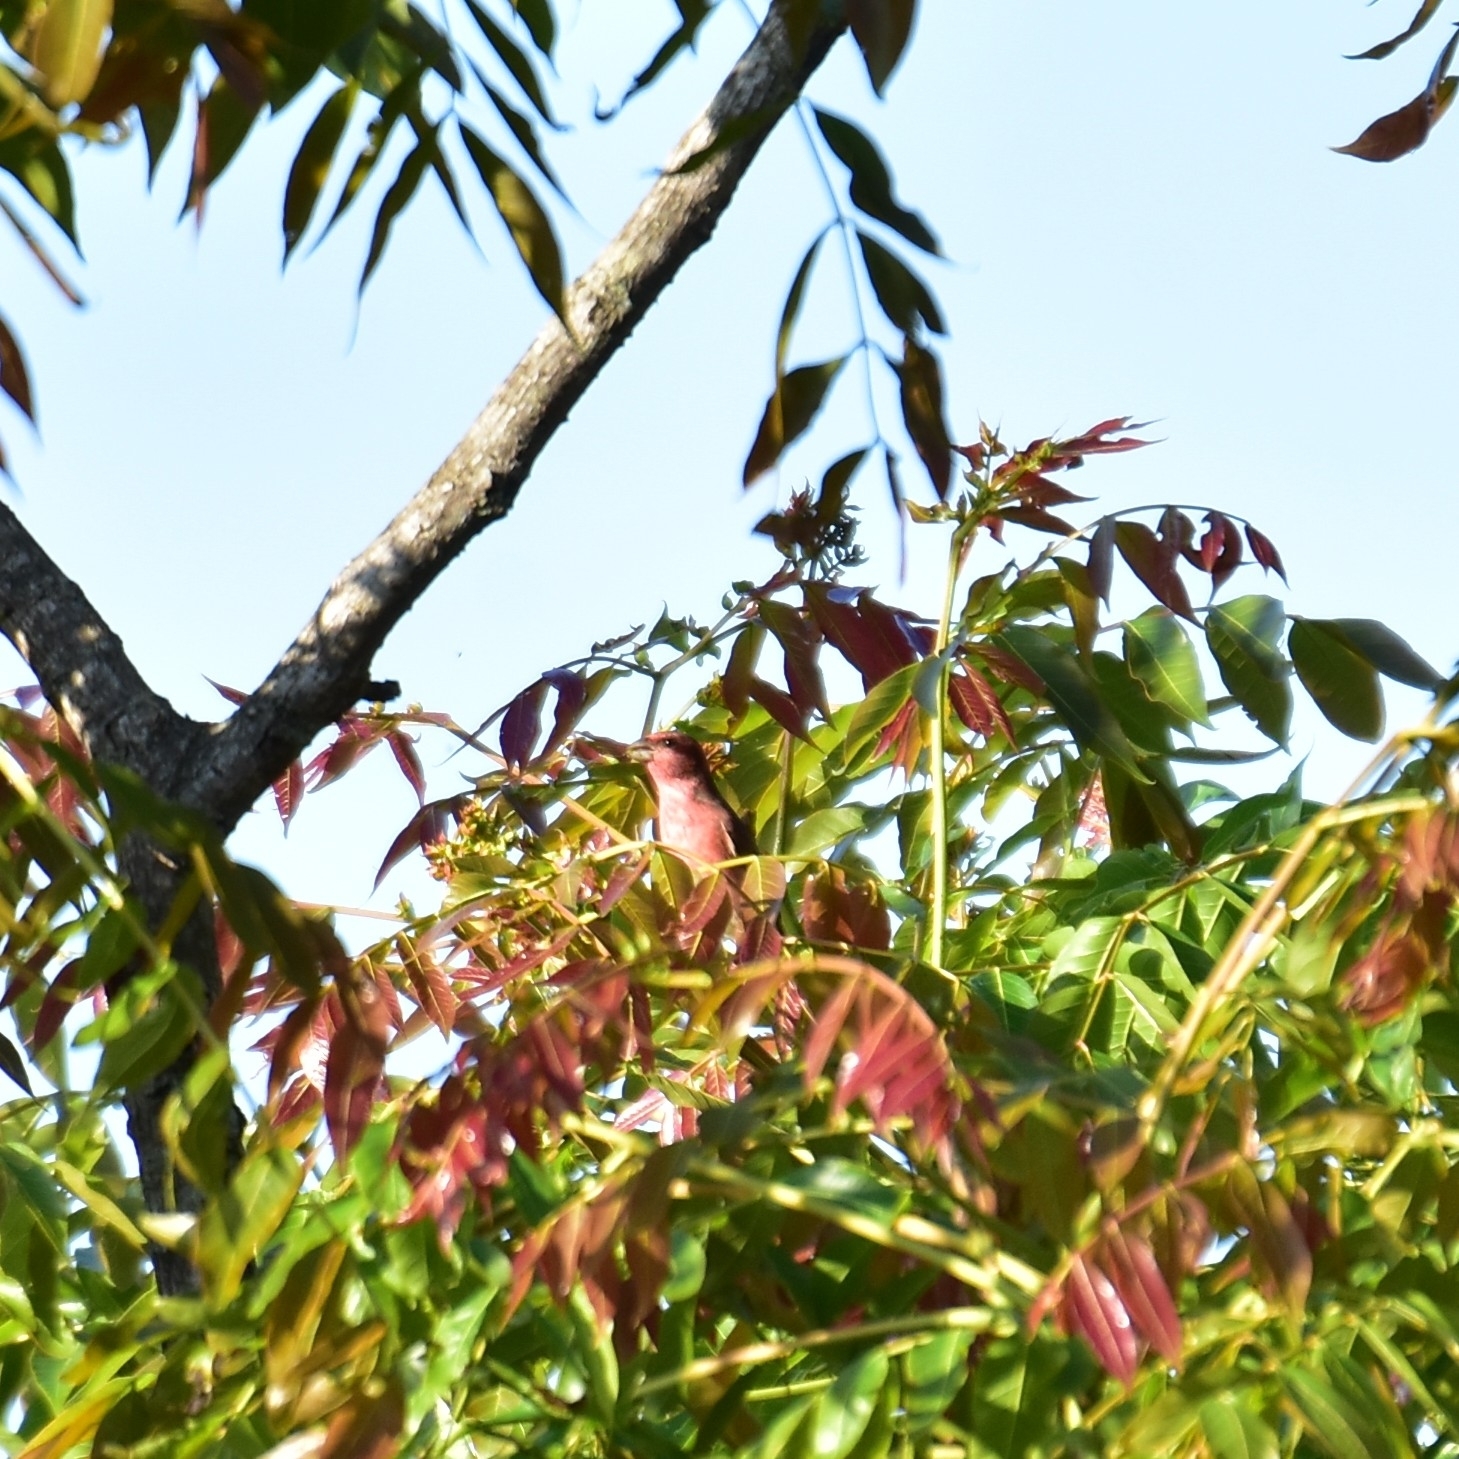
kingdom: Animalia
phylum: Chordata
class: Aves
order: Passeriformes
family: Fringillidae
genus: Carpodacus
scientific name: Carpodacus erythrinus
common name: Common rosefinch
